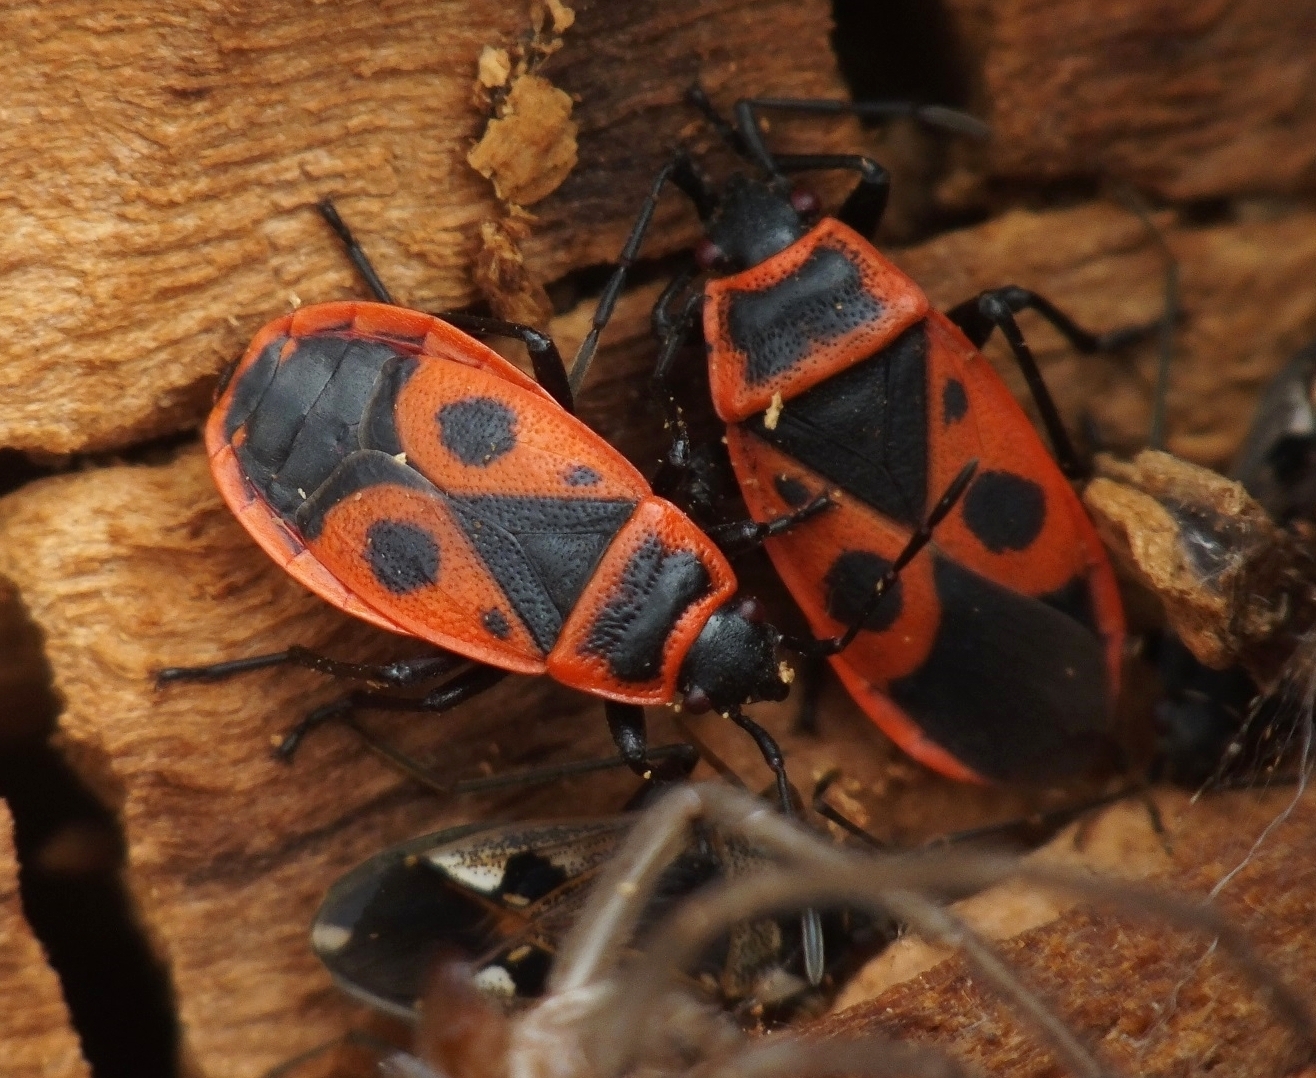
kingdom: Animalia
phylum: Arthropoda
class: Insecta
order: Hemiptera
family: Pyrrhocoridae
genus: Pyrrhocoris
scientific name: Pyrrhocoris apterus
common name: Firebug
